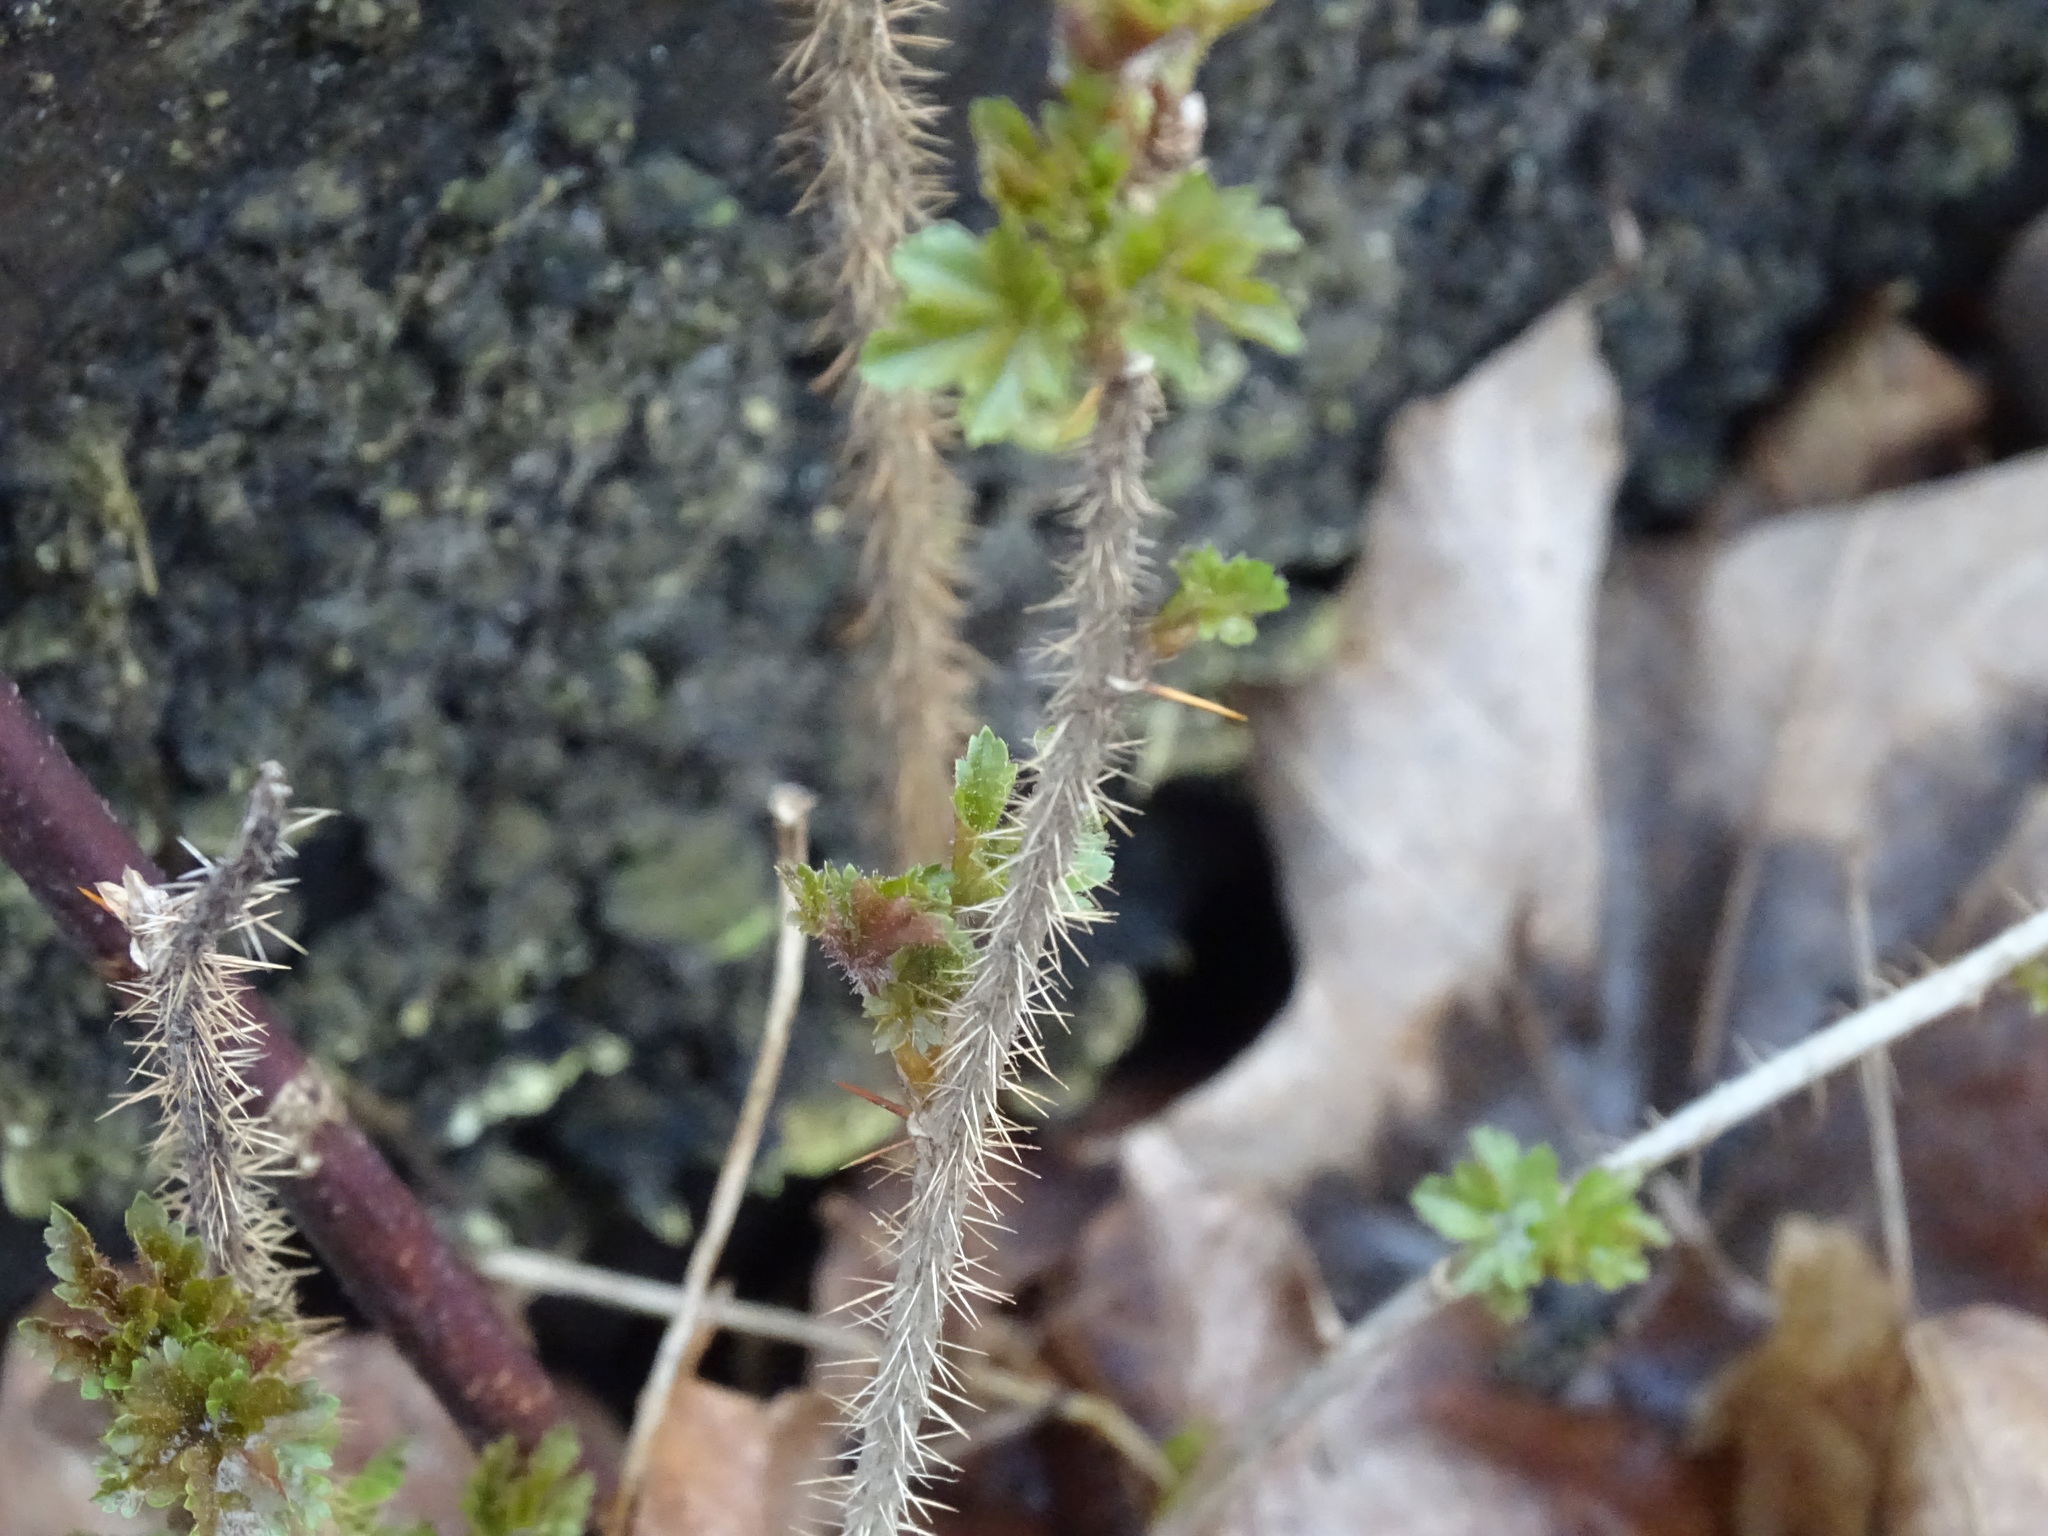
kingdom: Plantae
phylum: Tracheophyta
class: Magnoliopsida
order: Saxifragales
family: Grossulariaceae
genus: Ribes
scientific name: Ribes cynosbati
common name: American gooseberry
